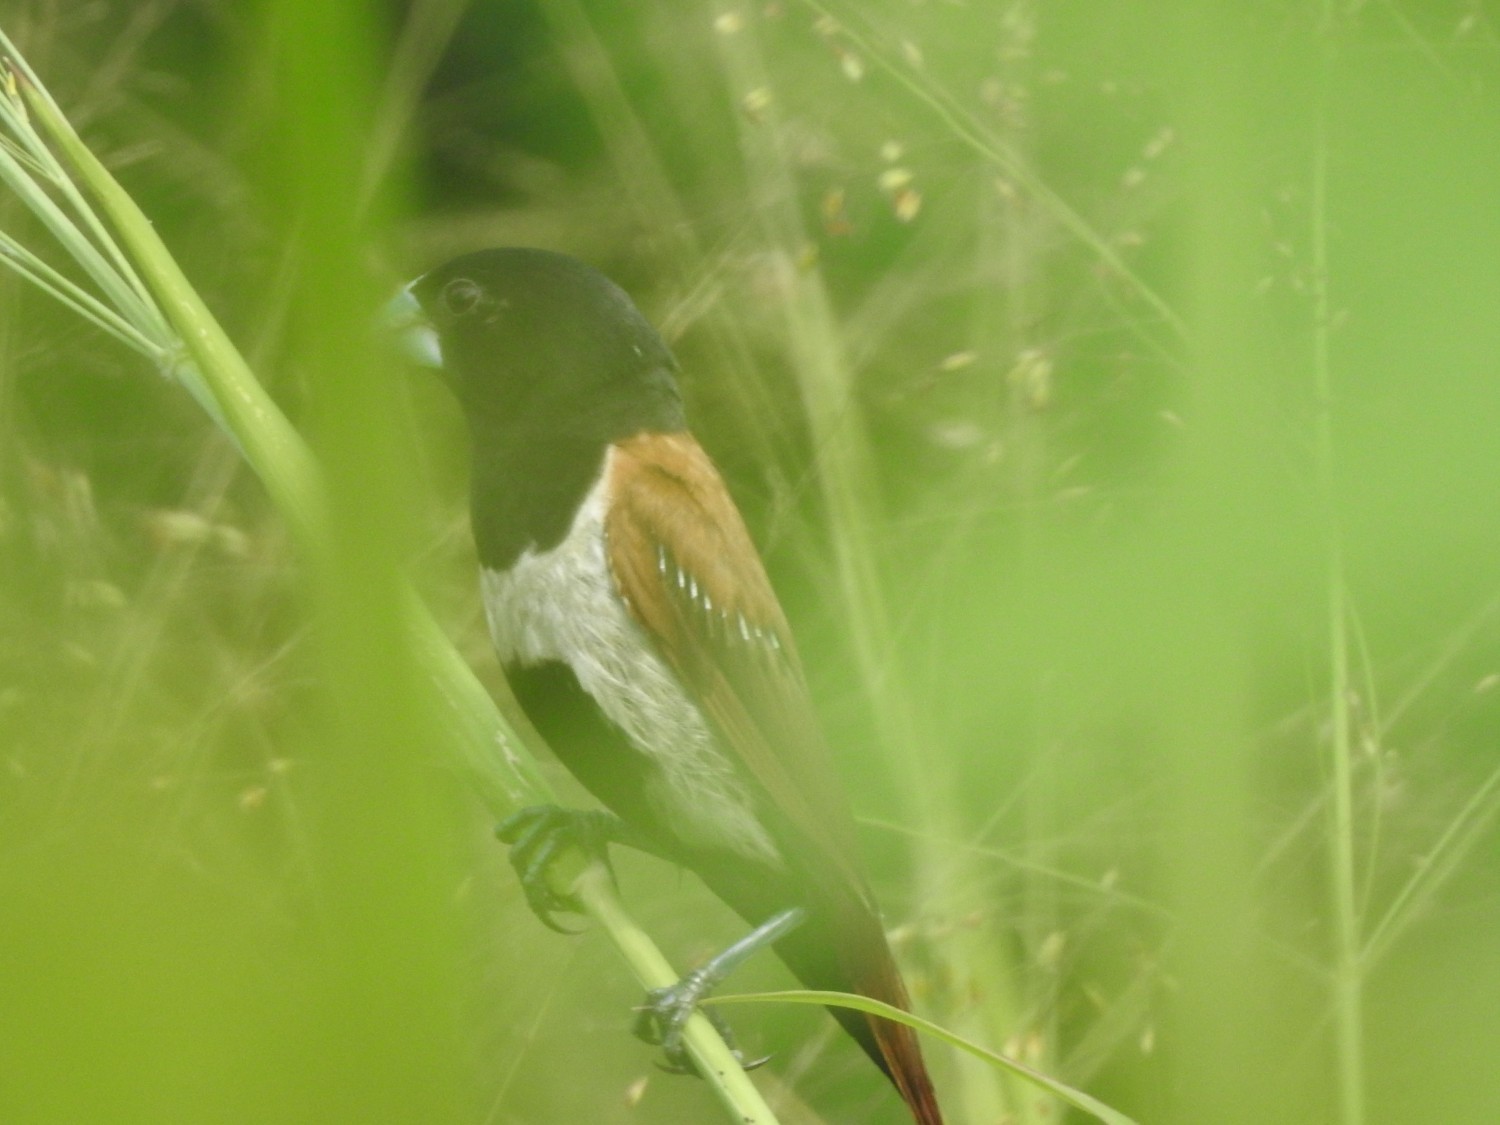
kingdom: Animalia
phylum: Chordata
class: Aves
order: Passeriformes
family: Estrildidae
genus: Lonchura
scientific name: Lonchura malacca
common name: Tricolored munia
